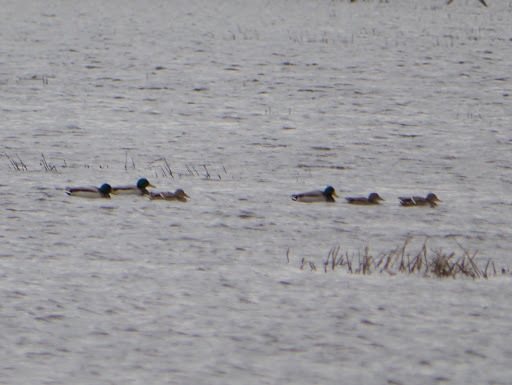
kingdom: Animalia
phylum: Chordata
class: Aves
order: Anseriformes
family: Anatidae
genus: Anas
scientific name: Anas platyrhynchos
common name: Mallard
